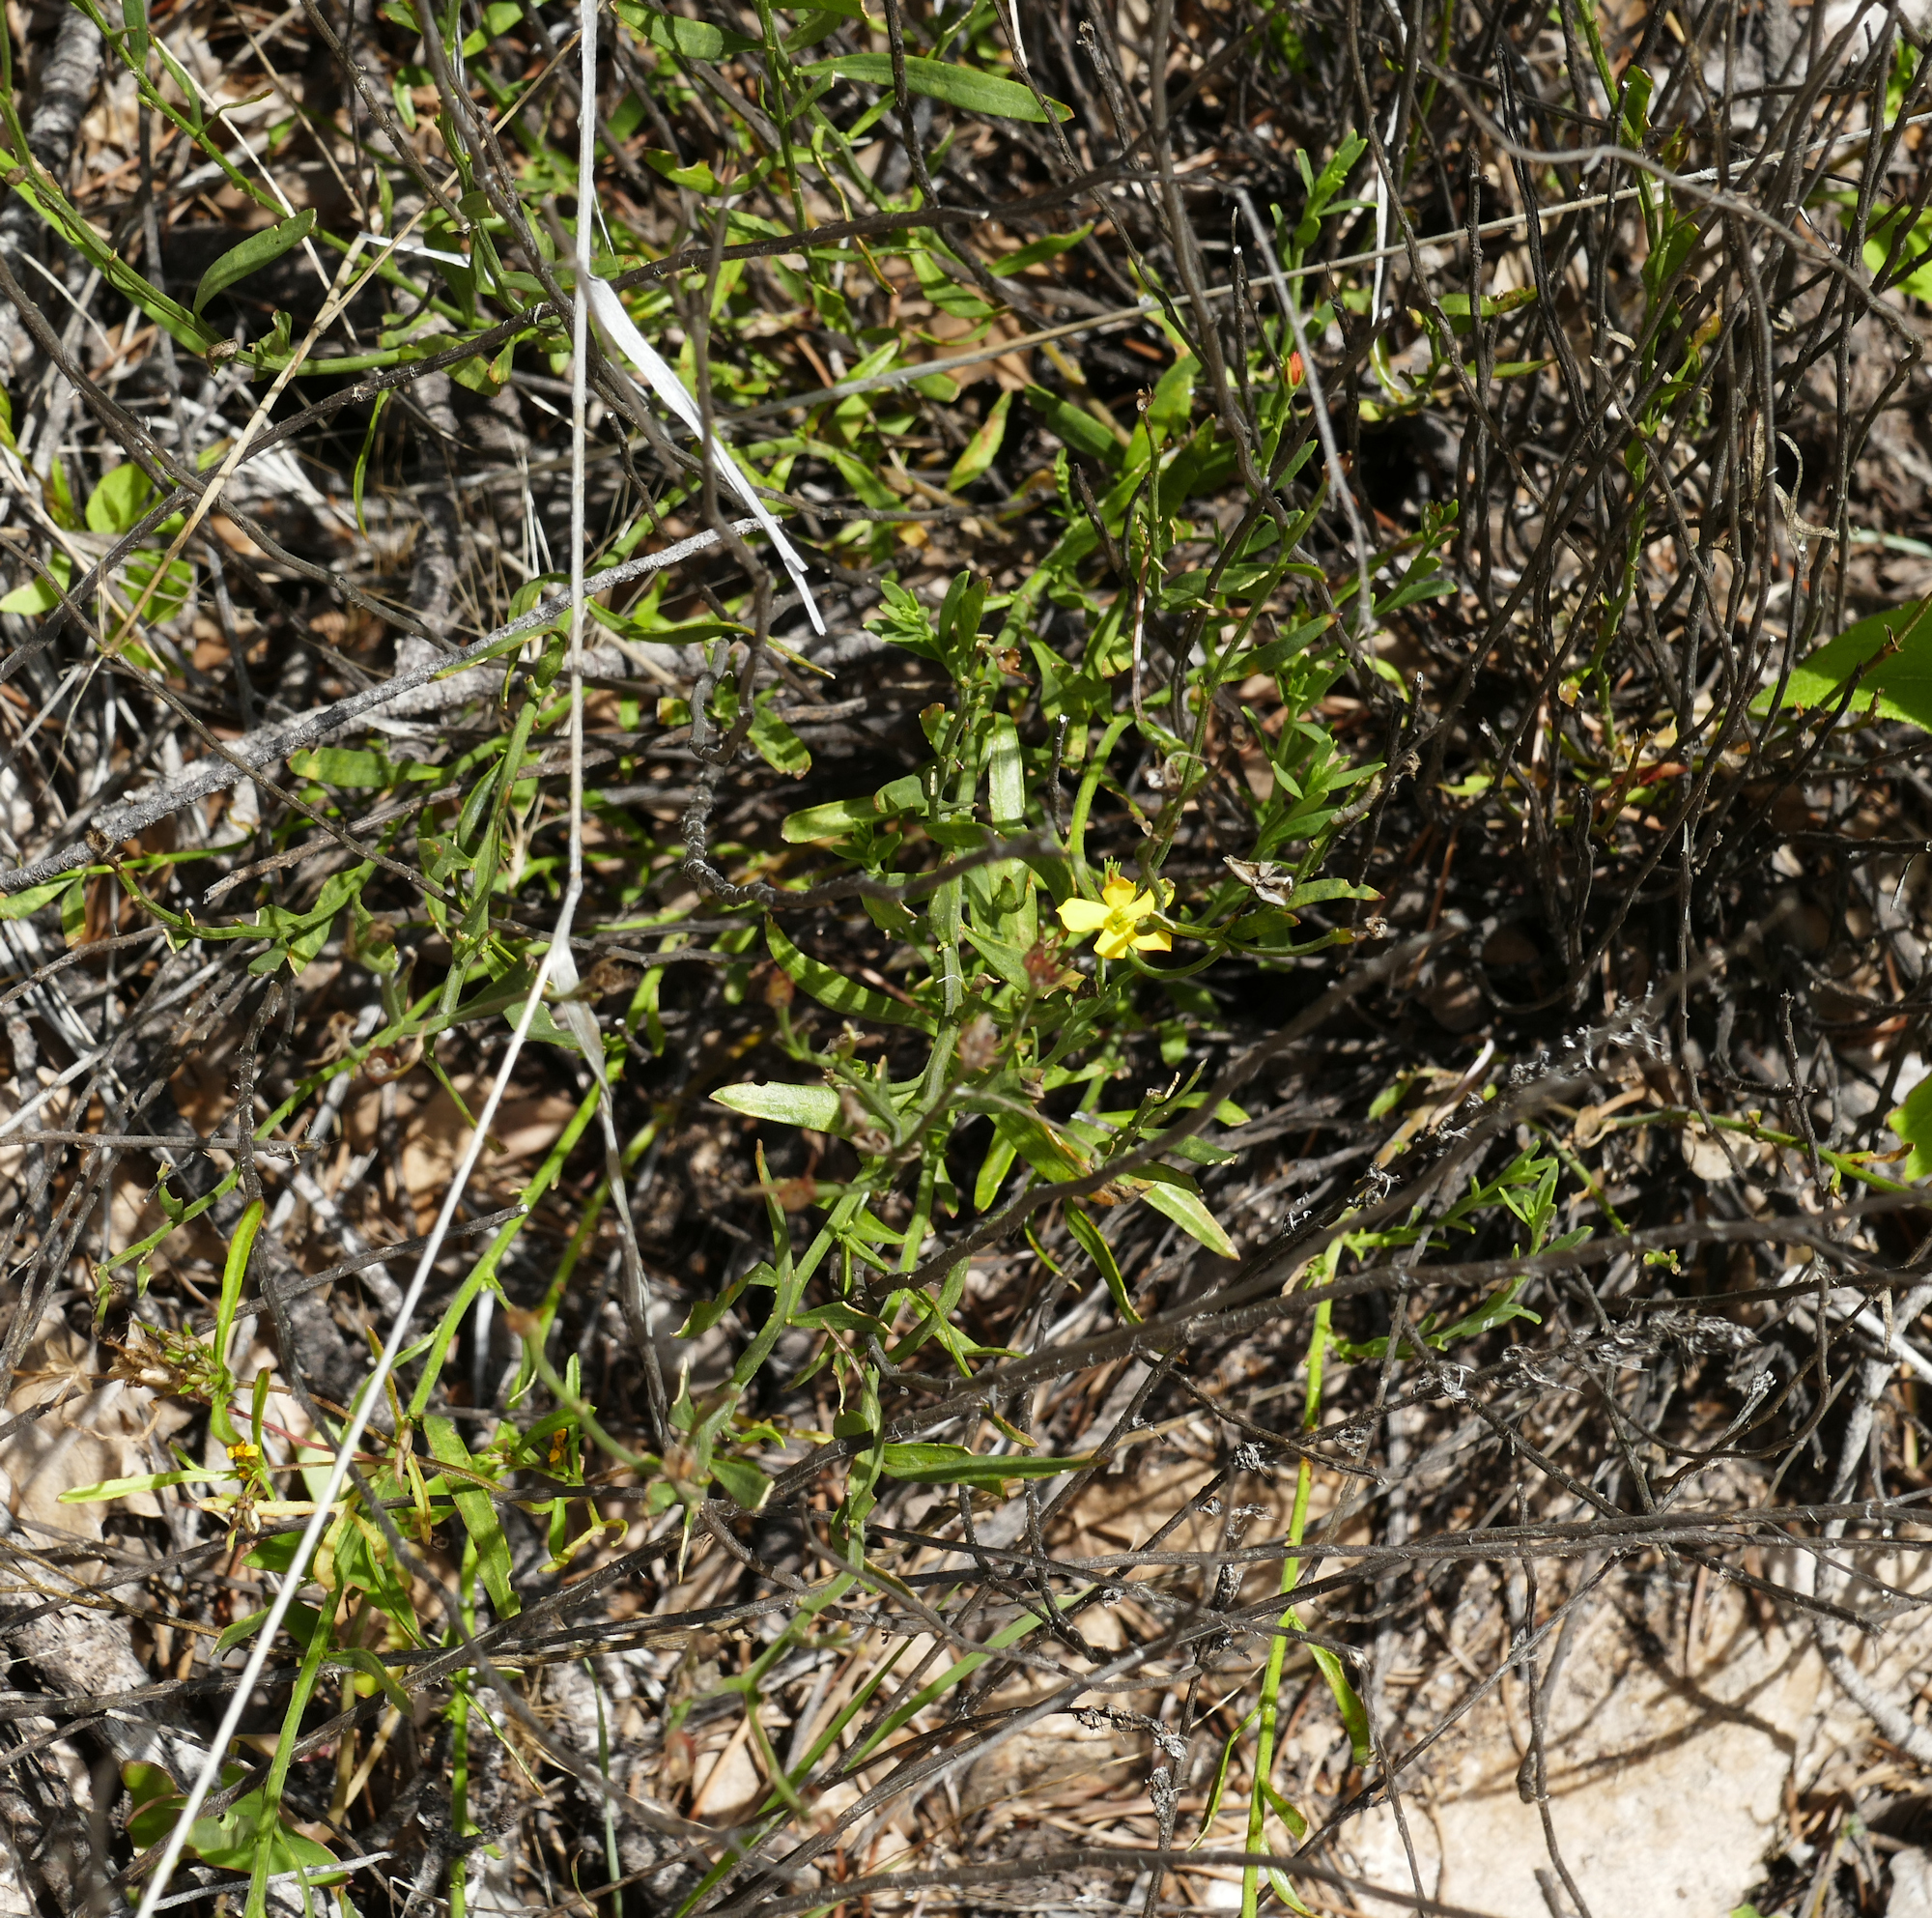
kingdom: Plantae
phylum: Tracheophyta
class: Magnoliopsida
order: Lamiales
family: Oleaceae
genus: Menodora
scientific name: Menodora scabra
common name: Rough menodora
